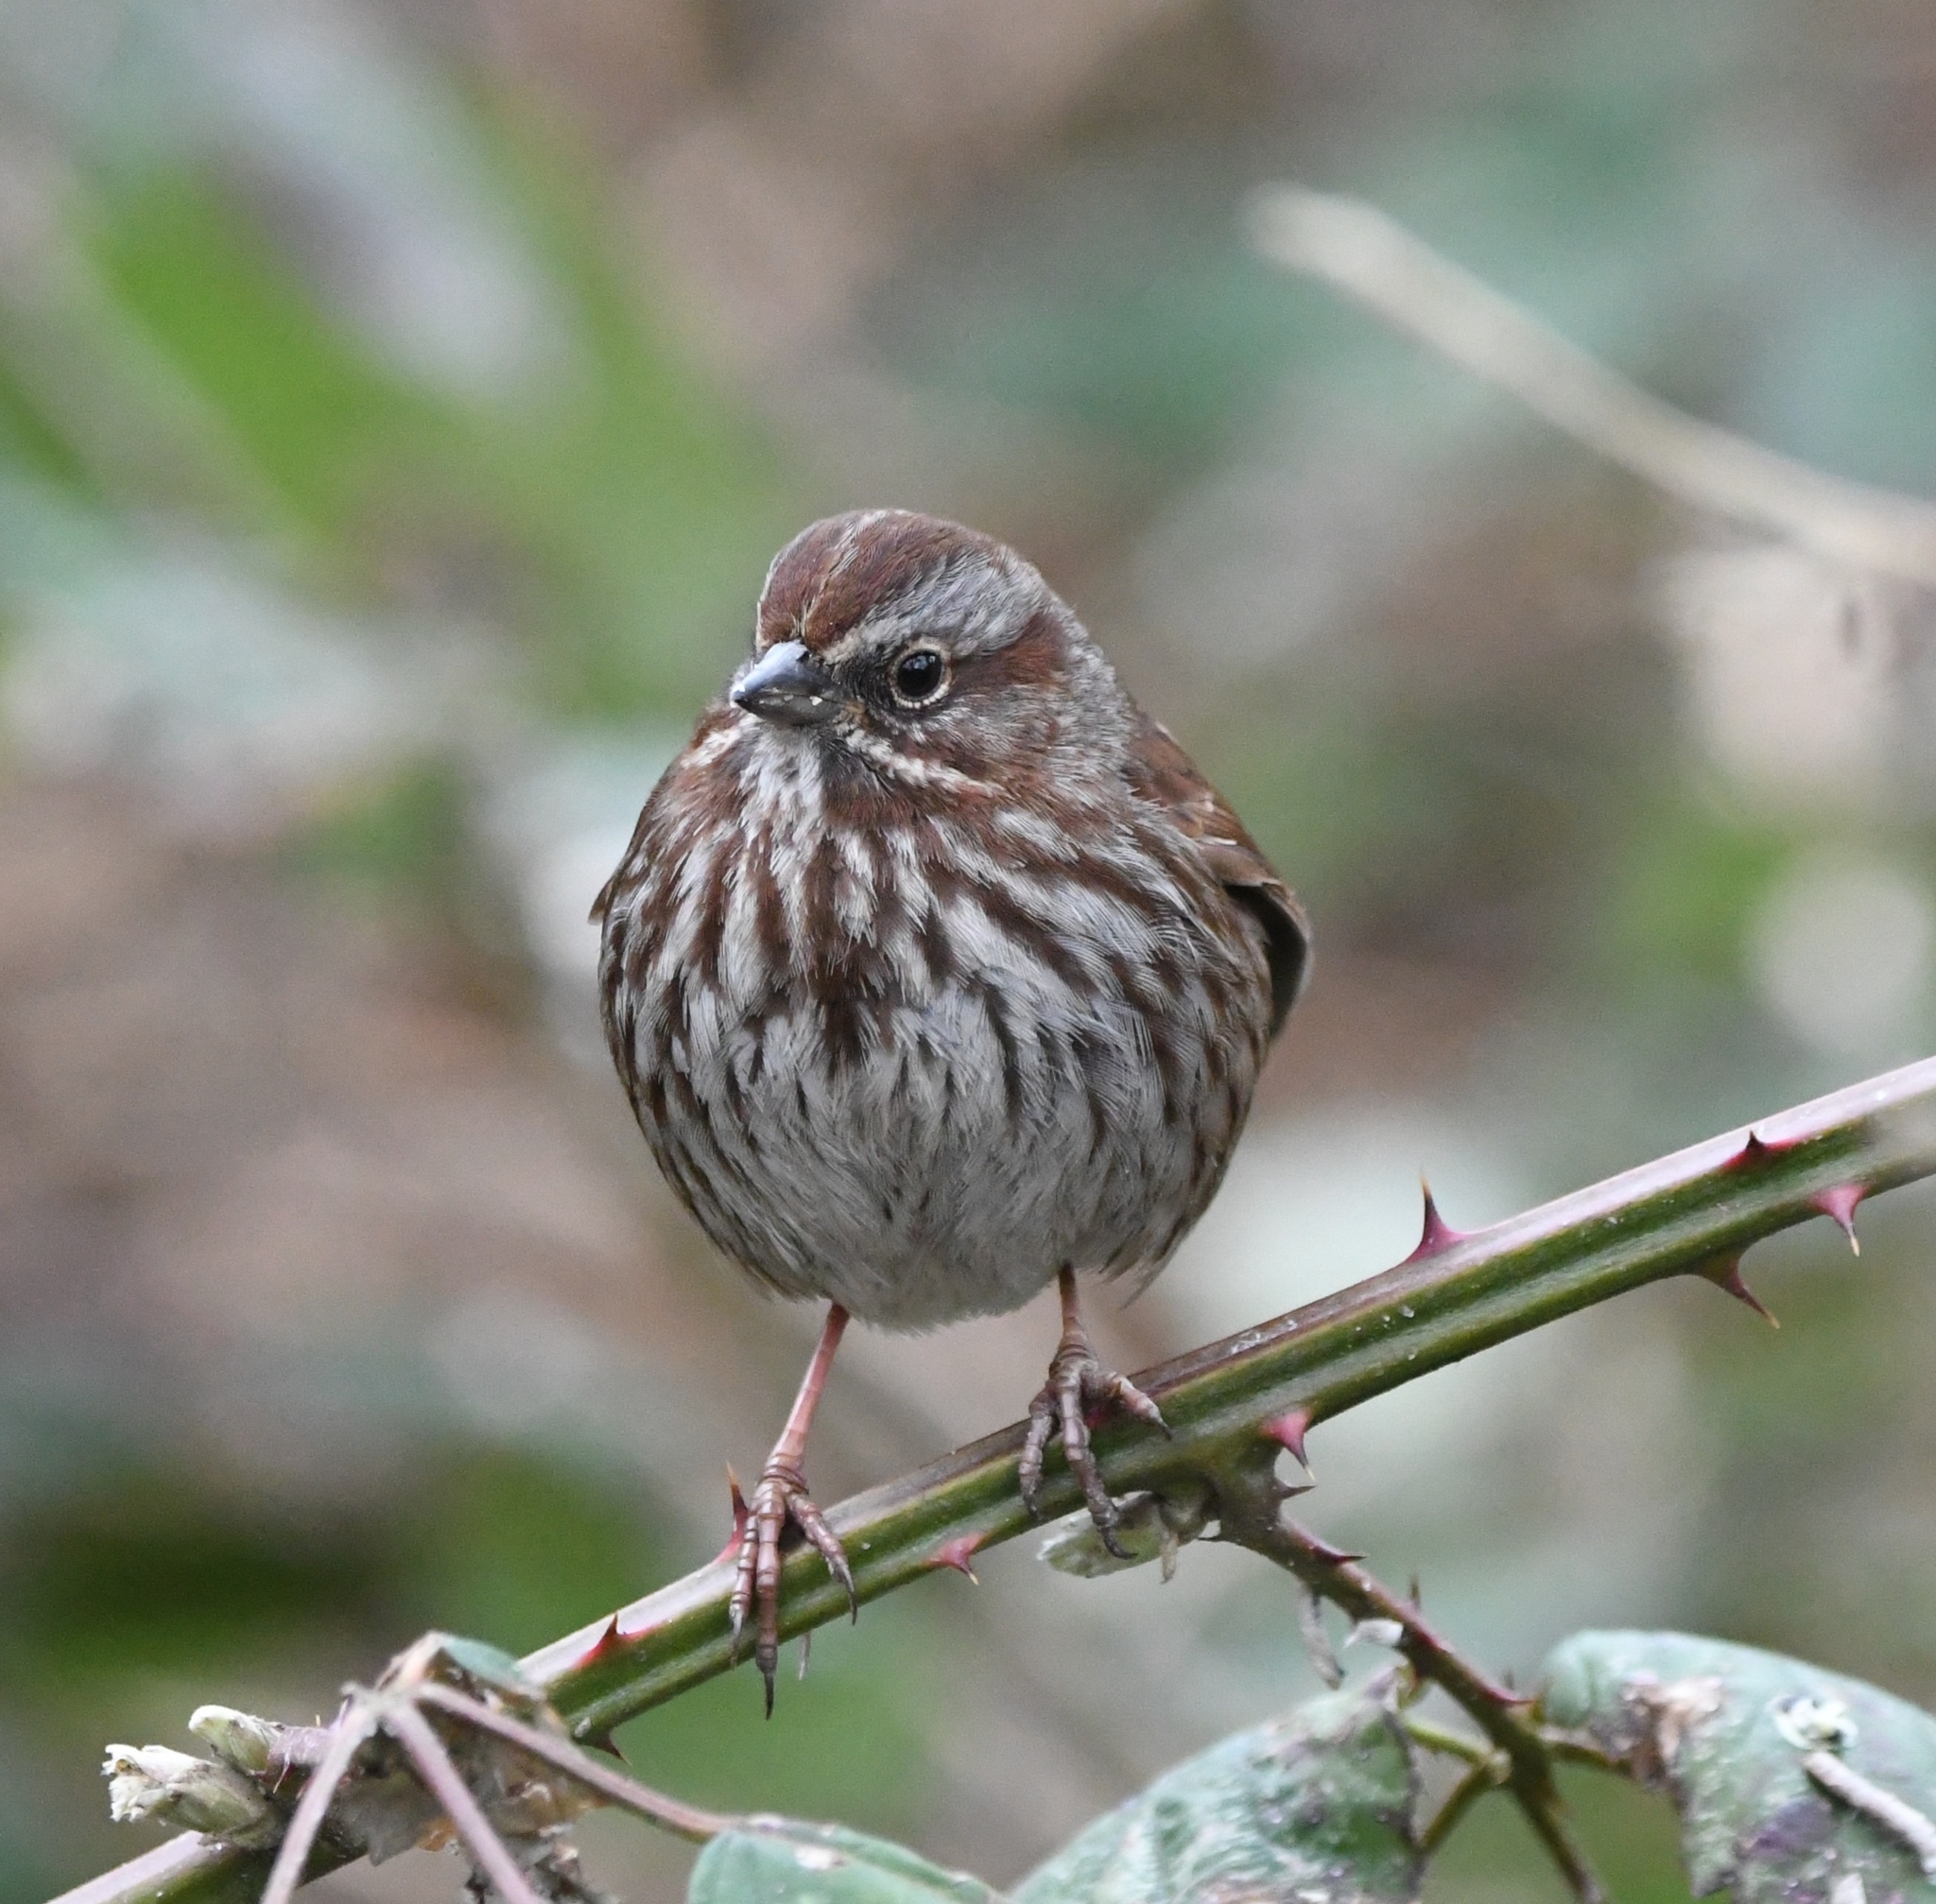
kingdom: Animalia
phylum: Chordata
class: Aves
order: Passeriformes
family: Passerellidae
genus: Melospiza
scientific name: Melospiza melodia
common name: Song sparrow
